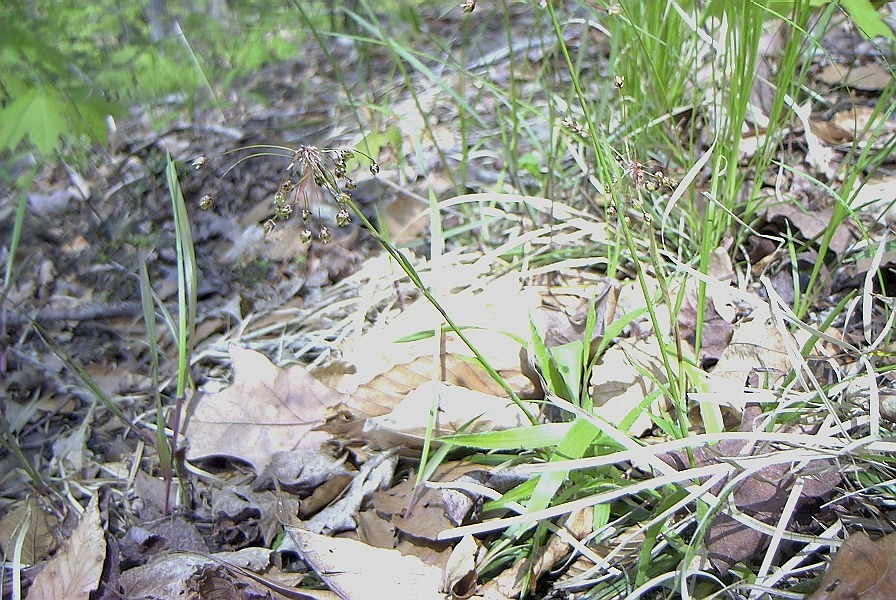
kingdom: Plantae
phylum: Tracheophyta
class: Liliopsida
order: Poales
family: Juncaceae
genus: Luzula
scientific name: Luzula acuminata
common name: Hairy woodrush
